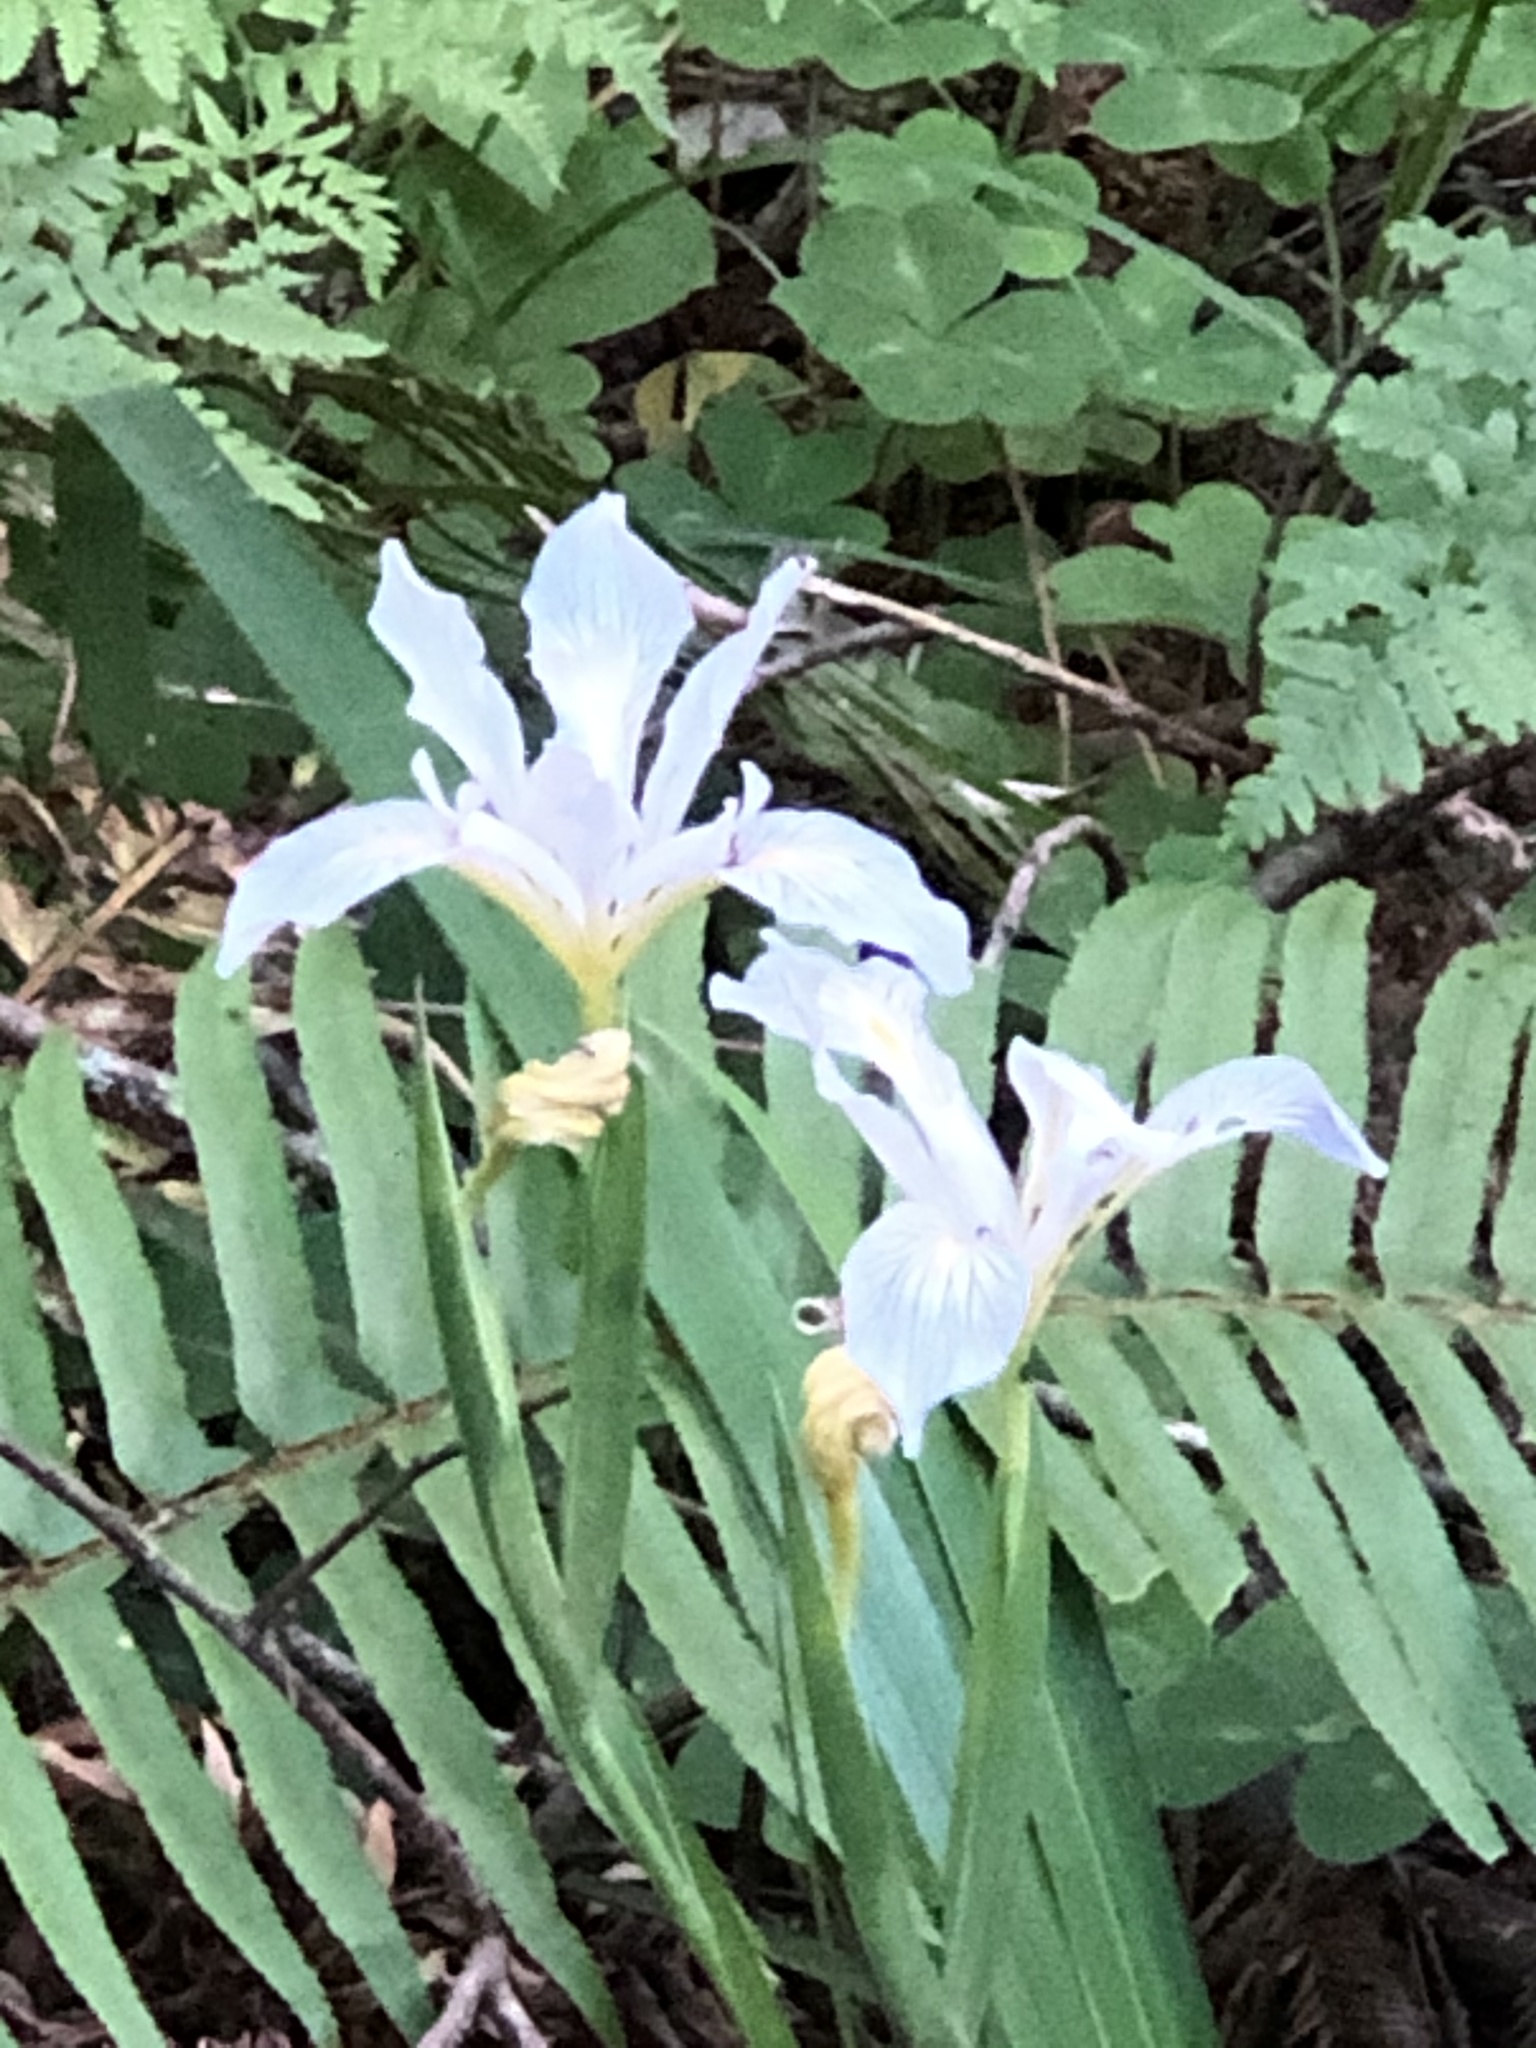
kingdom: Plantae
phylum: Tracheophyta
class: Liliopsida
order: Asparagales
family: Iridaceae
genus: Iris
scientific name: Iris douglasiana
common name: Marin iris
